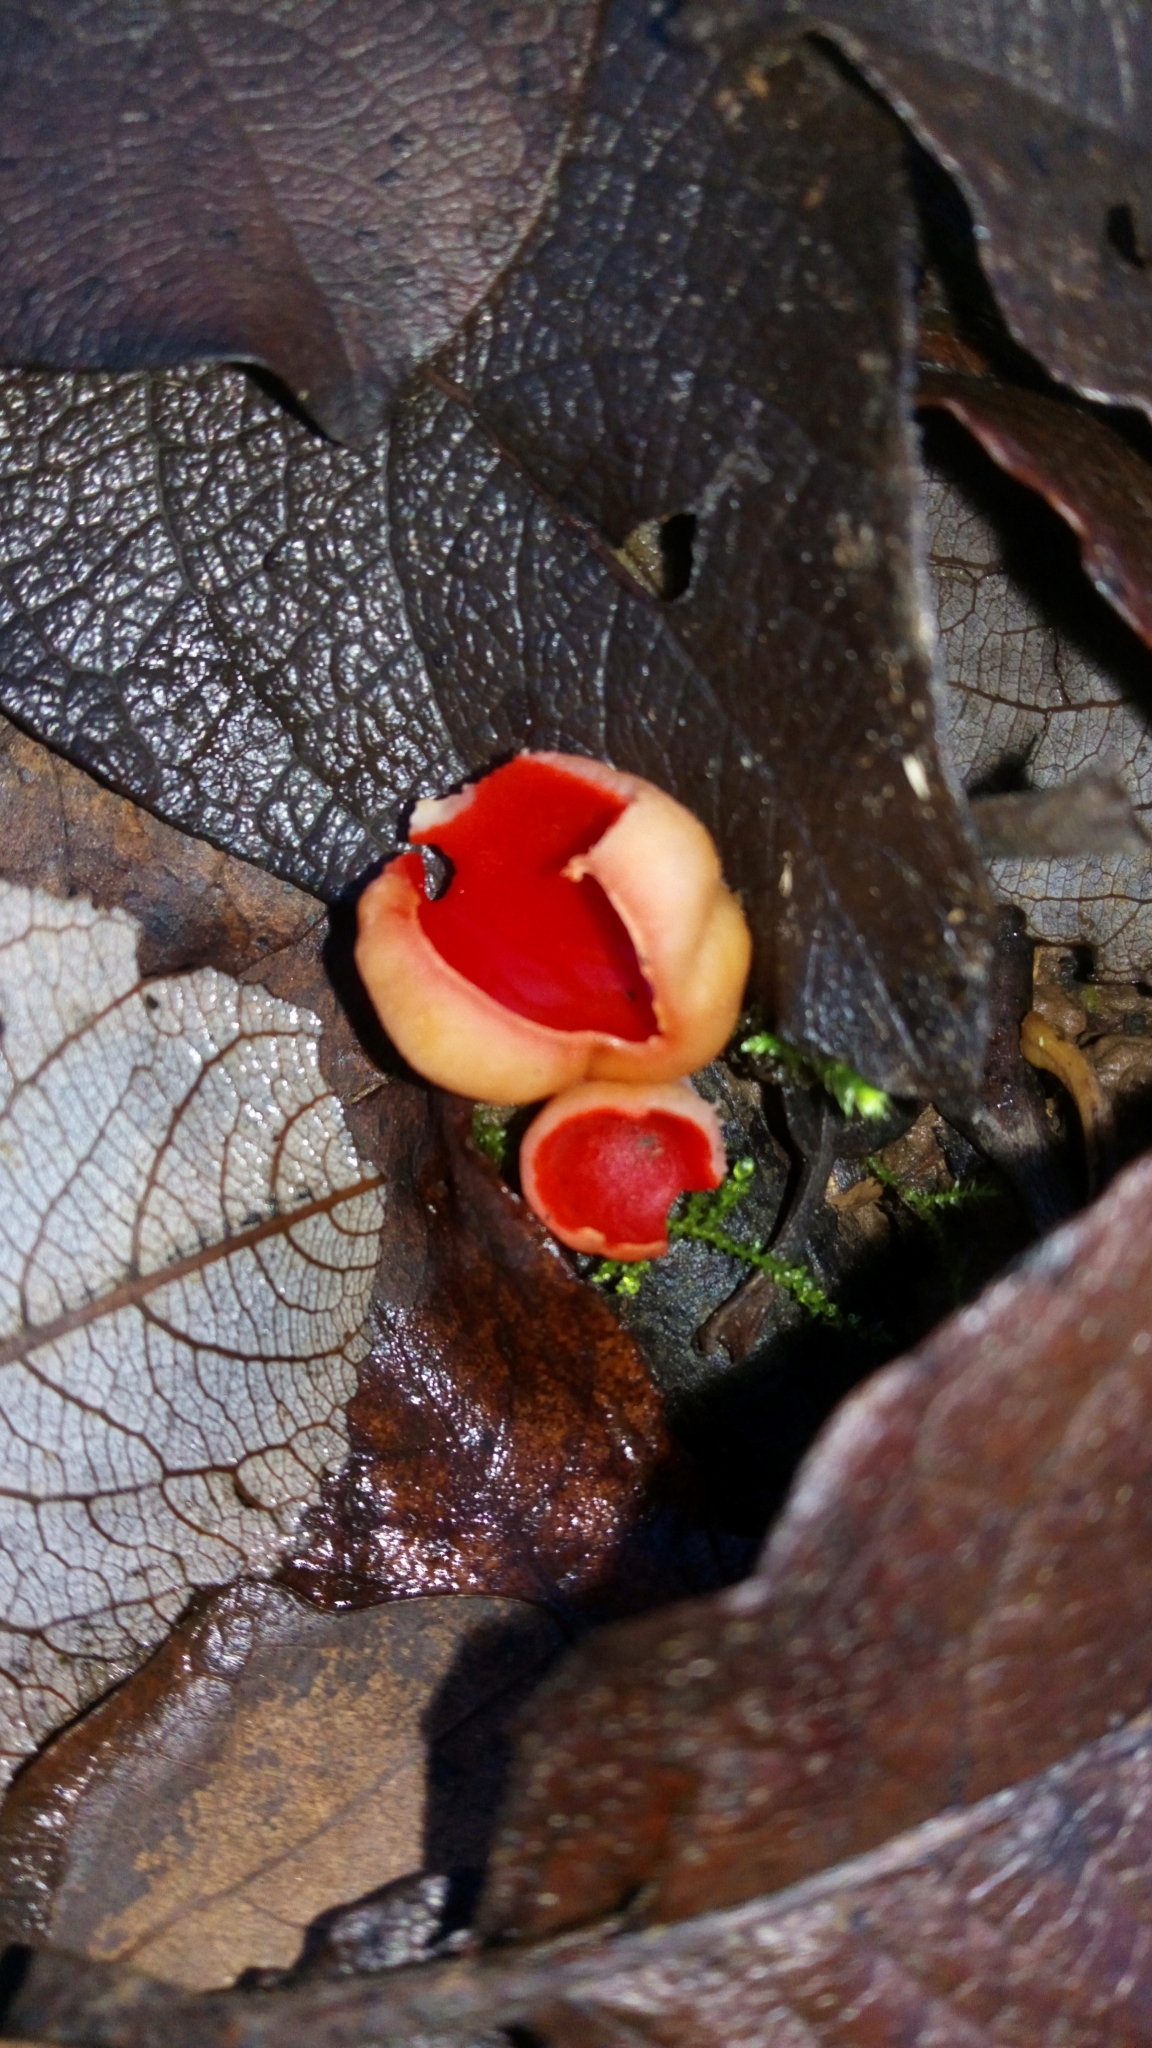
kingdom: Fungi
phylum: Ascomycota
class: Pezizomycetes
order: Pezizales
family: Sarcoscyphaceae
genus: Sarcoscypha
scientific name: Sarcoscypha
